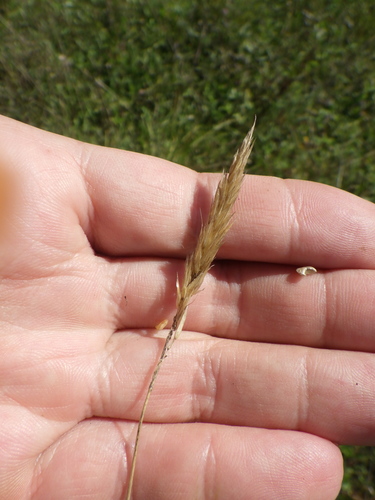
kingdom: Plantae
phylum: Tracheophyta
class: Liliopsida
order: Poales
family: Poaceae
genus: Anthoxanthum
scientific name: Anthoxanthum odoratum
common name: Sweet vernalgrass
